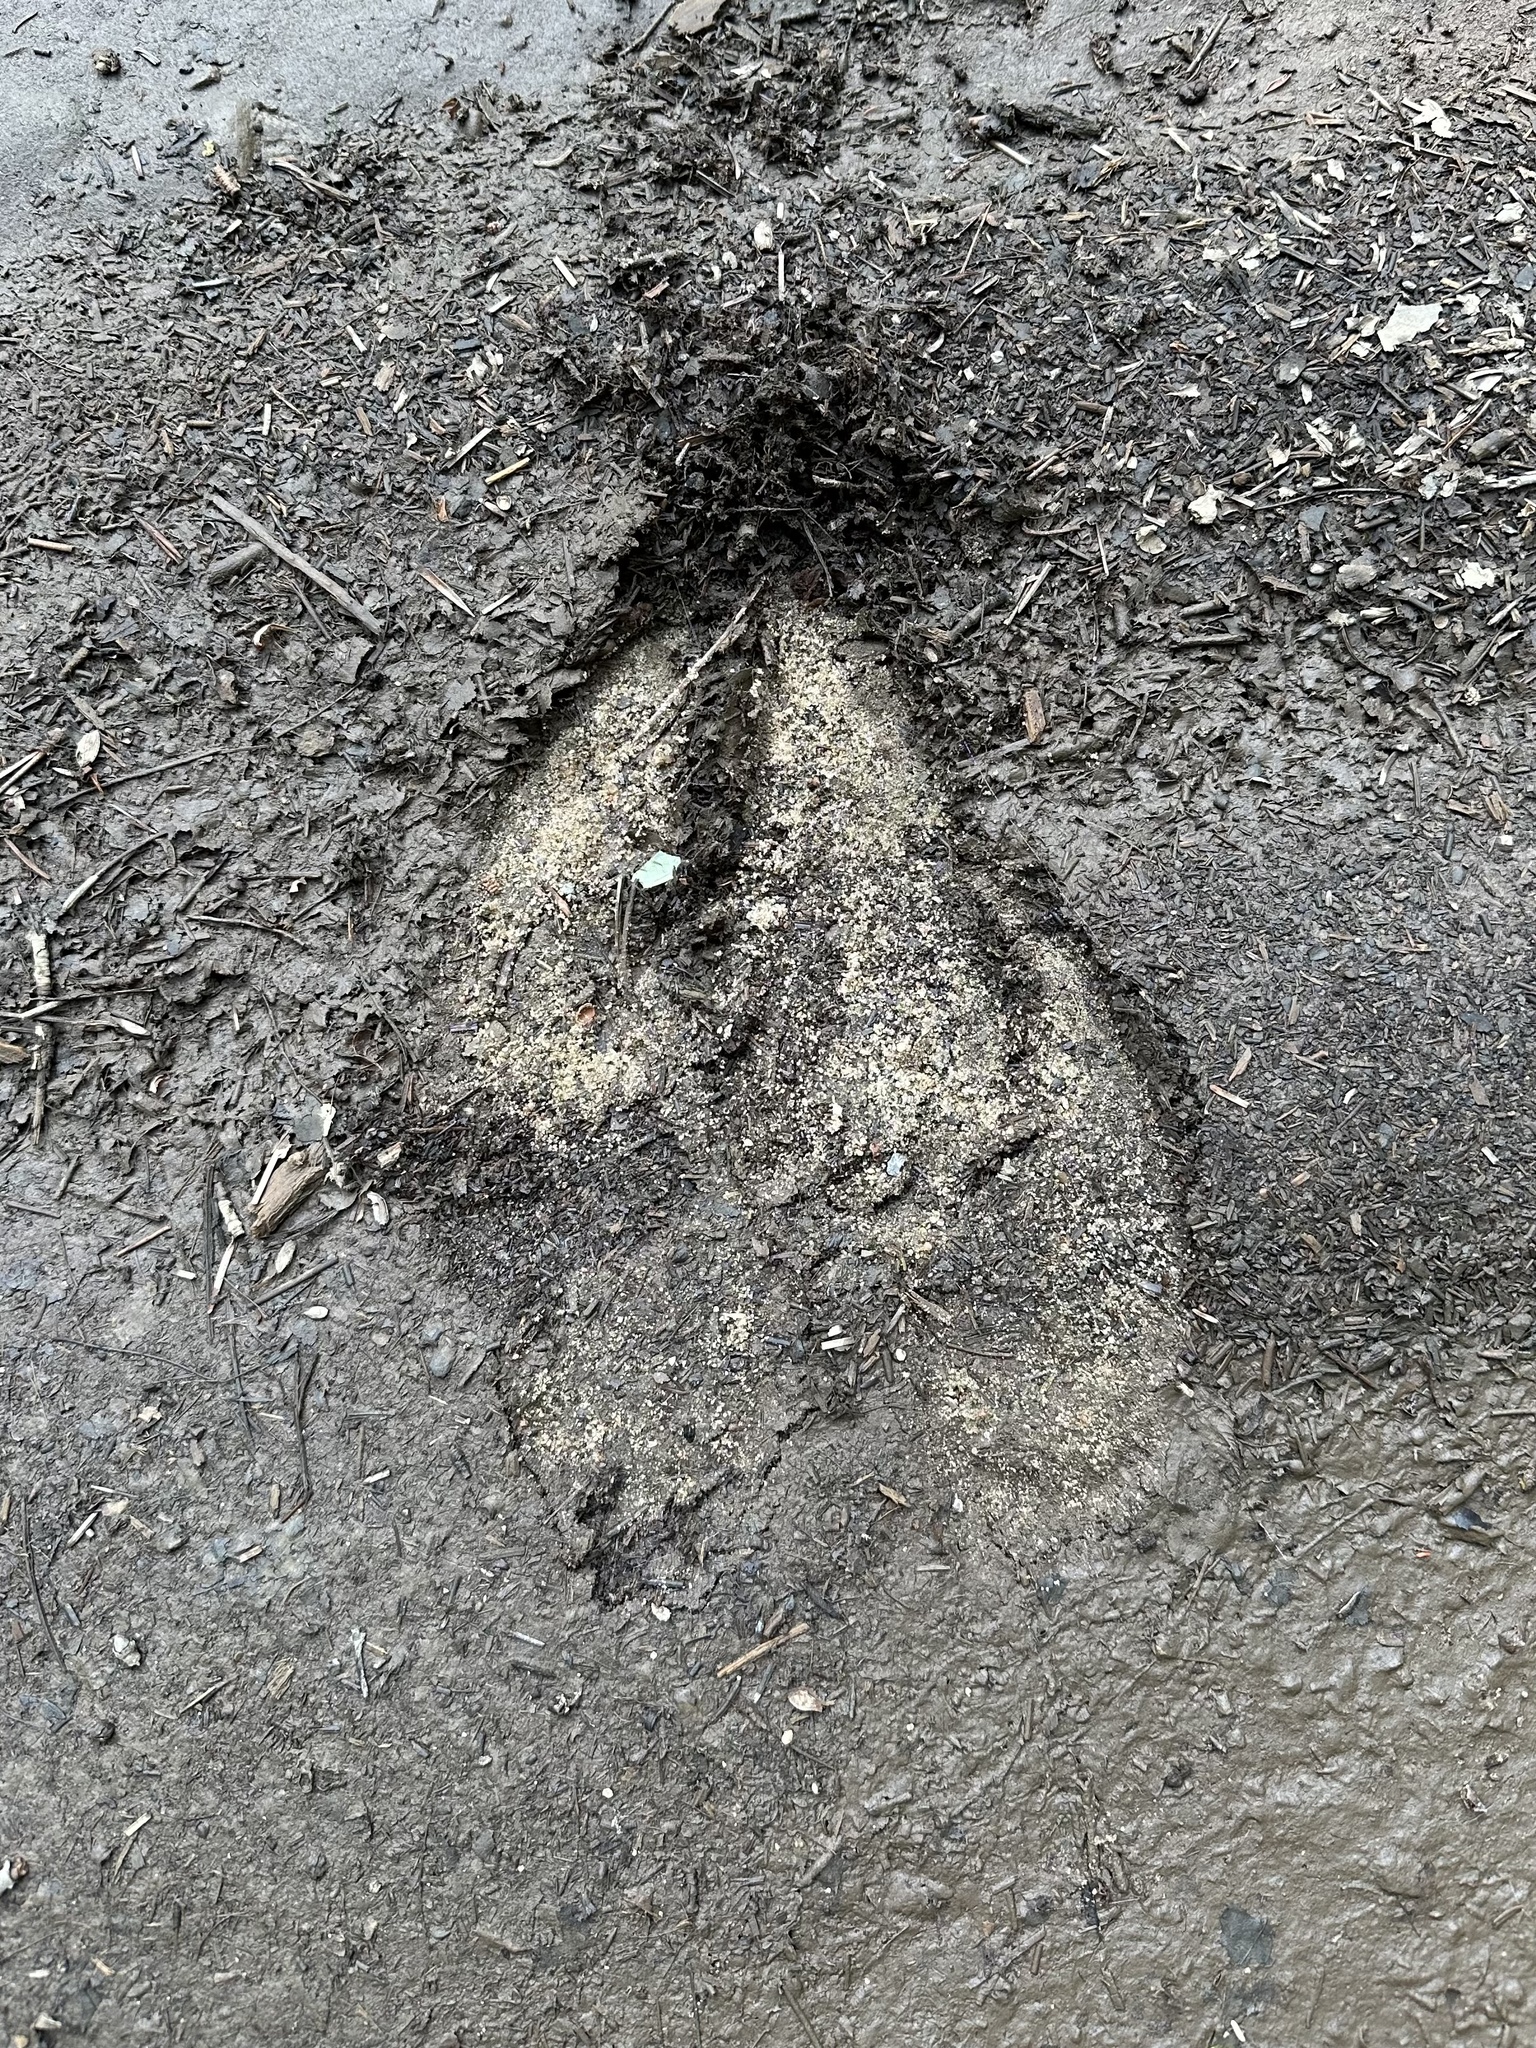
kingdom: Animalia
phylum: Chordata
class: Mammalia
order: Artiodactyla
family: Cervidae
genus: Alces
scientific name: Alces alces
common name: Moose
